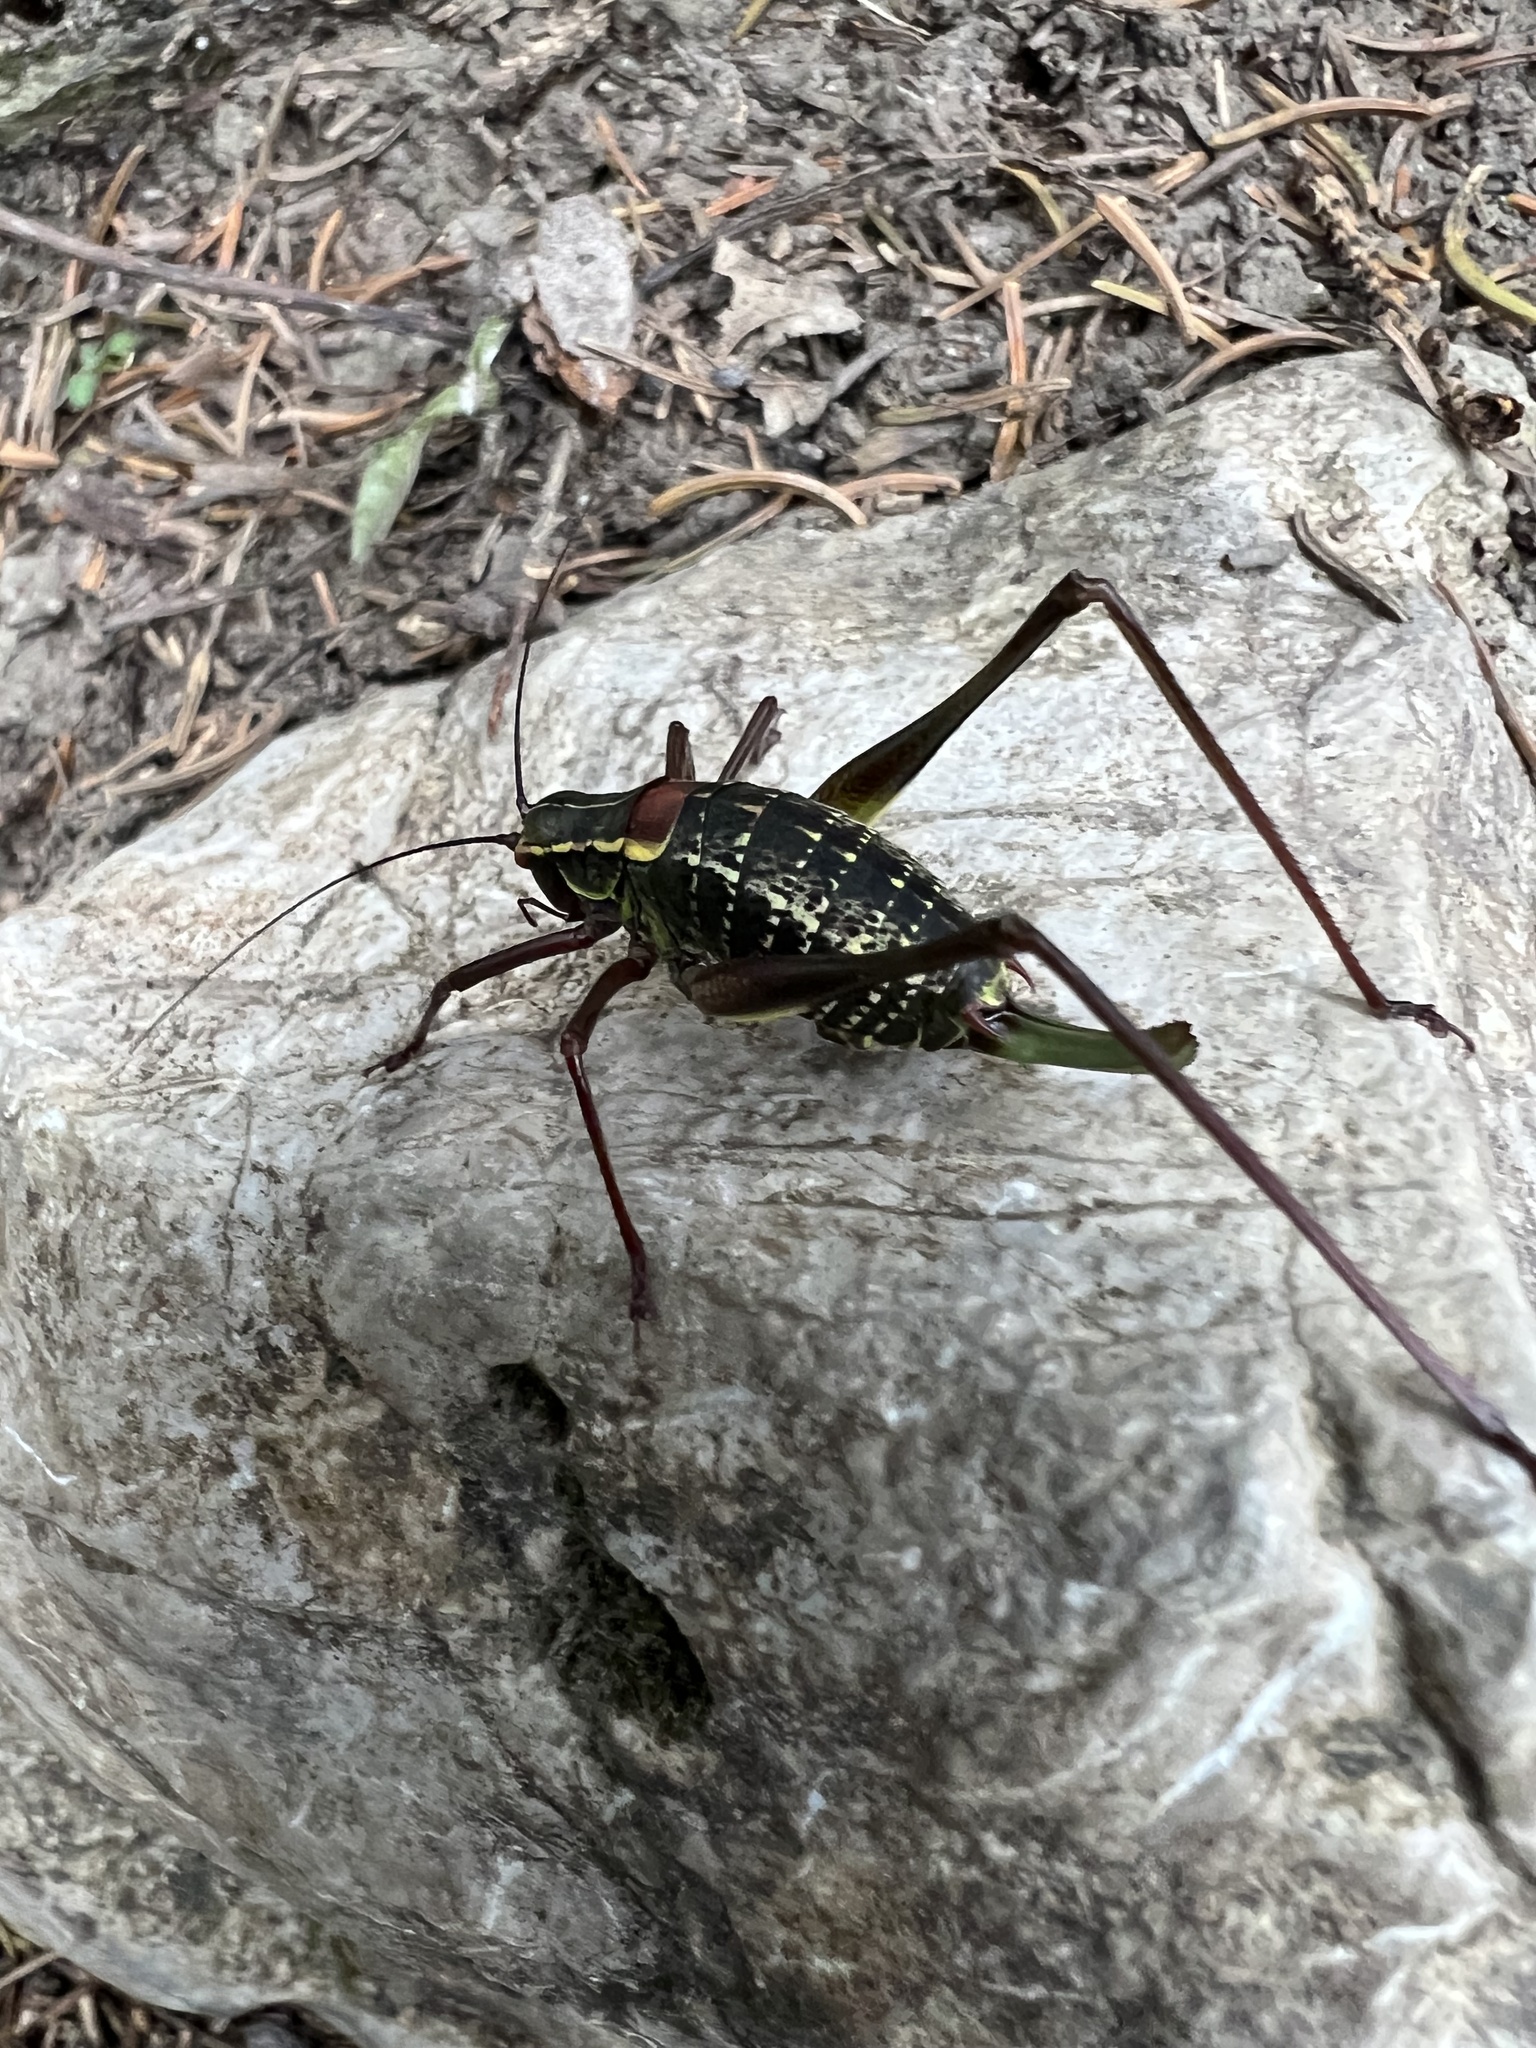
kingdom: Animalia
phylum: Arthropoda
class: Insecta
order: Orthoptera
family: Tettigoniidae
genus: Barbitistes
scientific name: Barbitistes serricauda
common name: Saw-tailed bush-cricket
